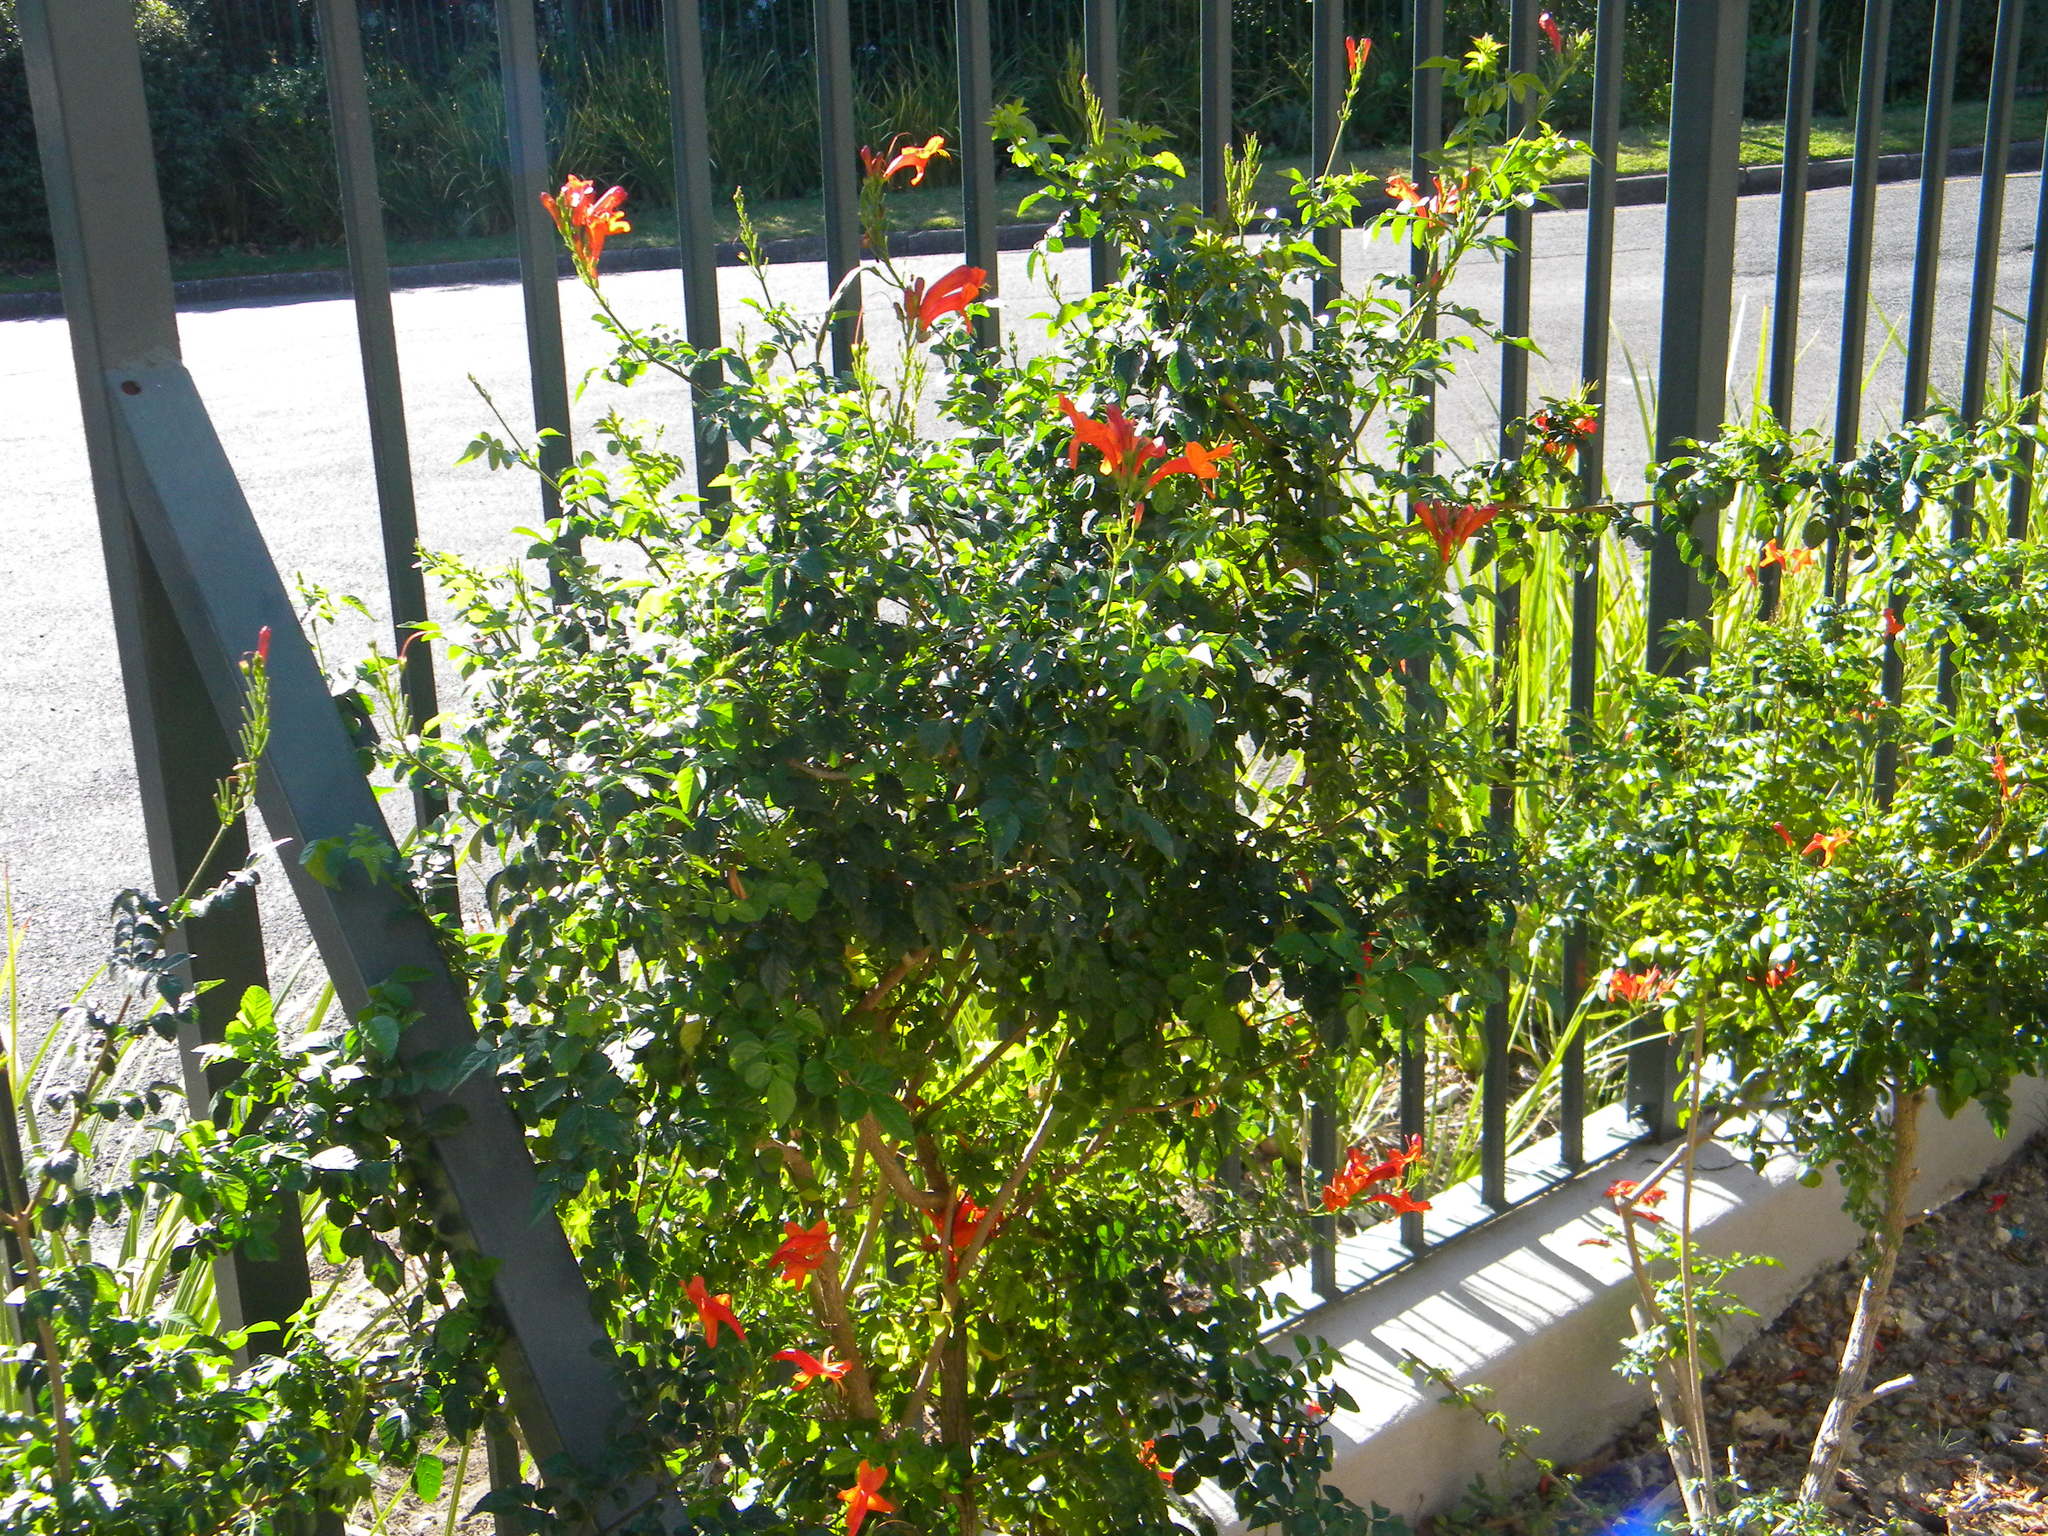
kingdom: Plantae
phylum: Tracheophyta
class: Magnoliopsida
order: Lamiales
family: Bignoniaceae
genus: Tecomaria
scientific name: Tecomaria capensis
